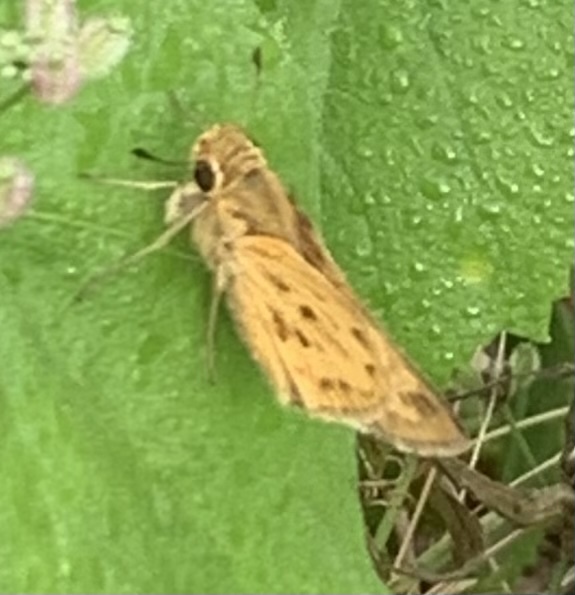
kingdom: Animalia
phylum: Arthropoda
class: Insecta
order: Lepidoptera
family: Hesperiidae
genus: Hylephila
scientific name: Hylephila phyleus
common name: Fiery skipper
